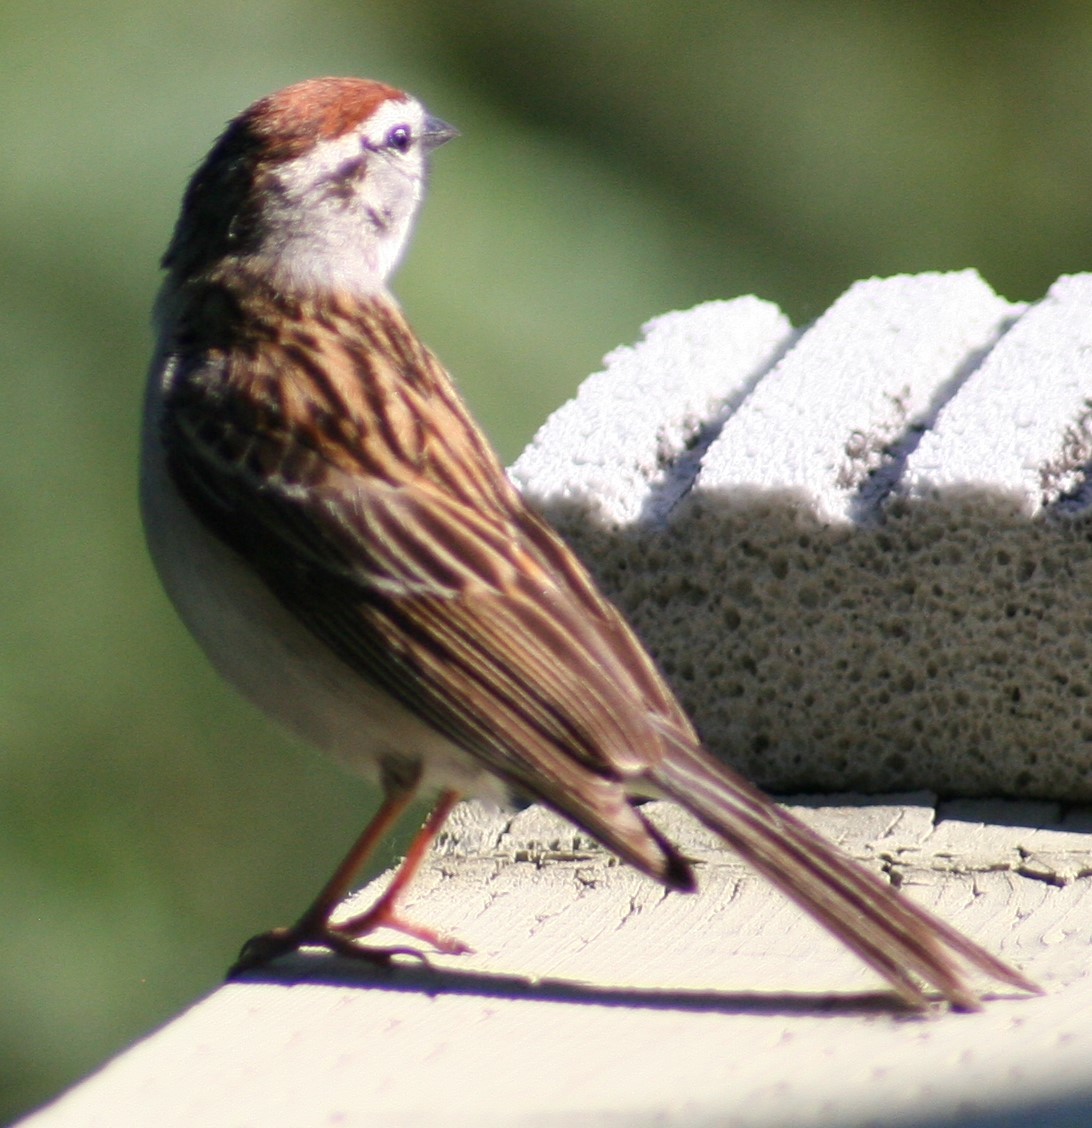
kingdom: Animalia
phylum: Chordata
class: Aves
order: Passeriformes
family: Passerellidae
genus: Spizella
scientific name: Spizella passerina
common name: Chipping sparrow
